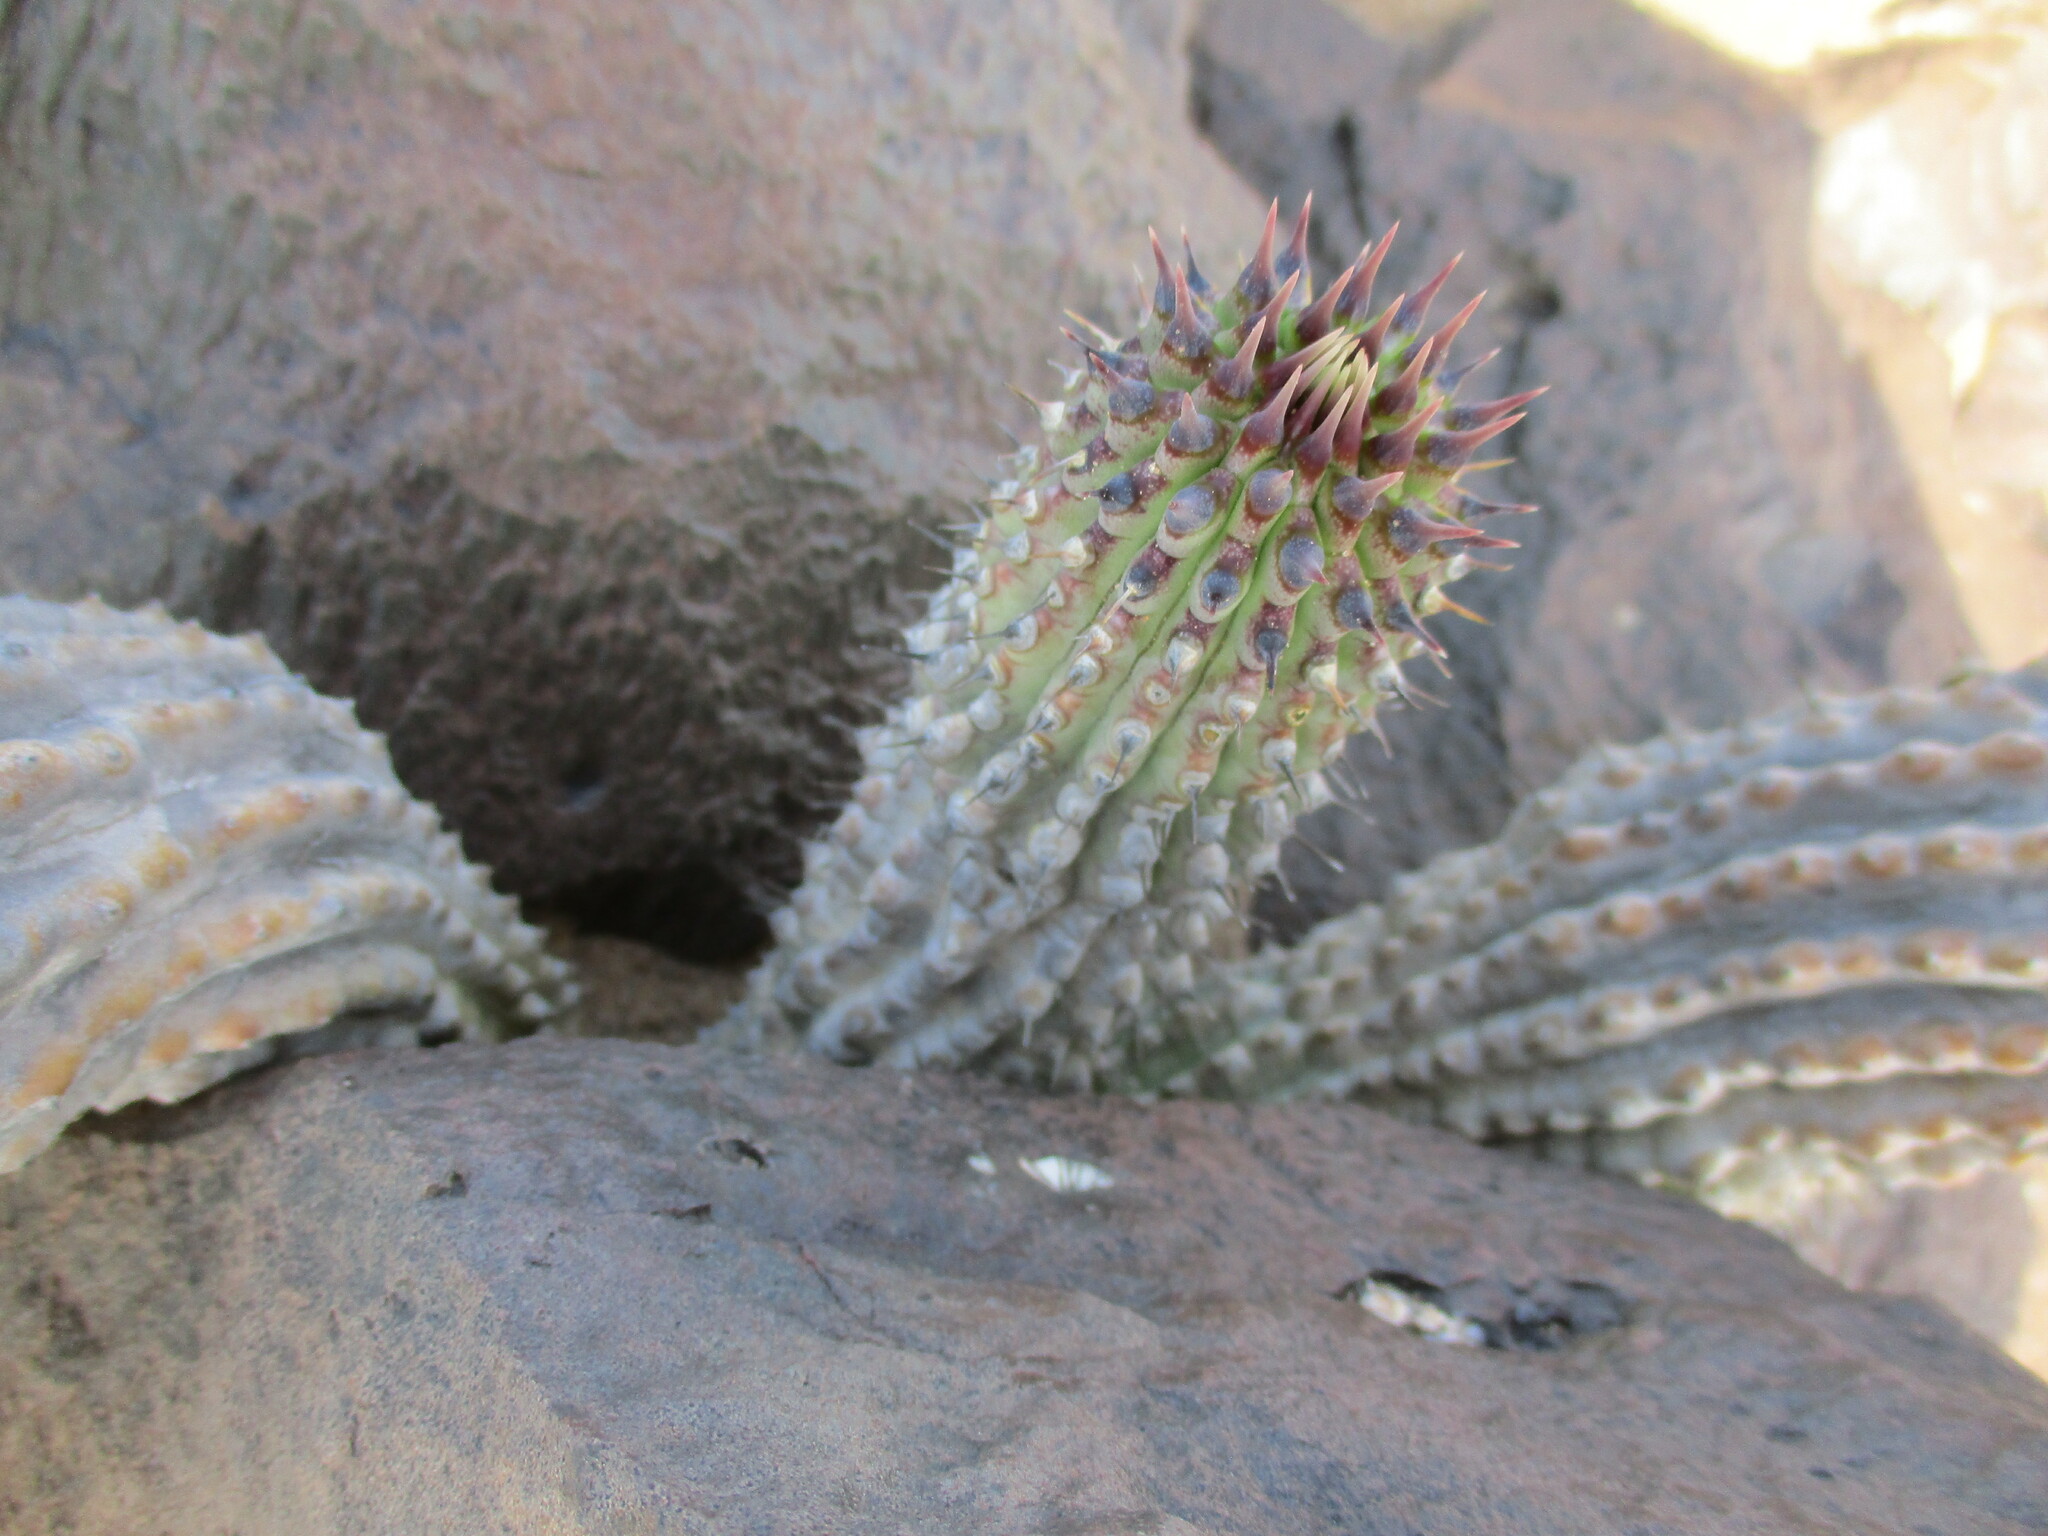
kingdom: Plantae
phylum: Tracheophyta
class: Gnetopsida
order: Welwitschiales
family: Welwitschiaceae
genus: Welwitschia
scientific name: Welwitschia mirabilis
